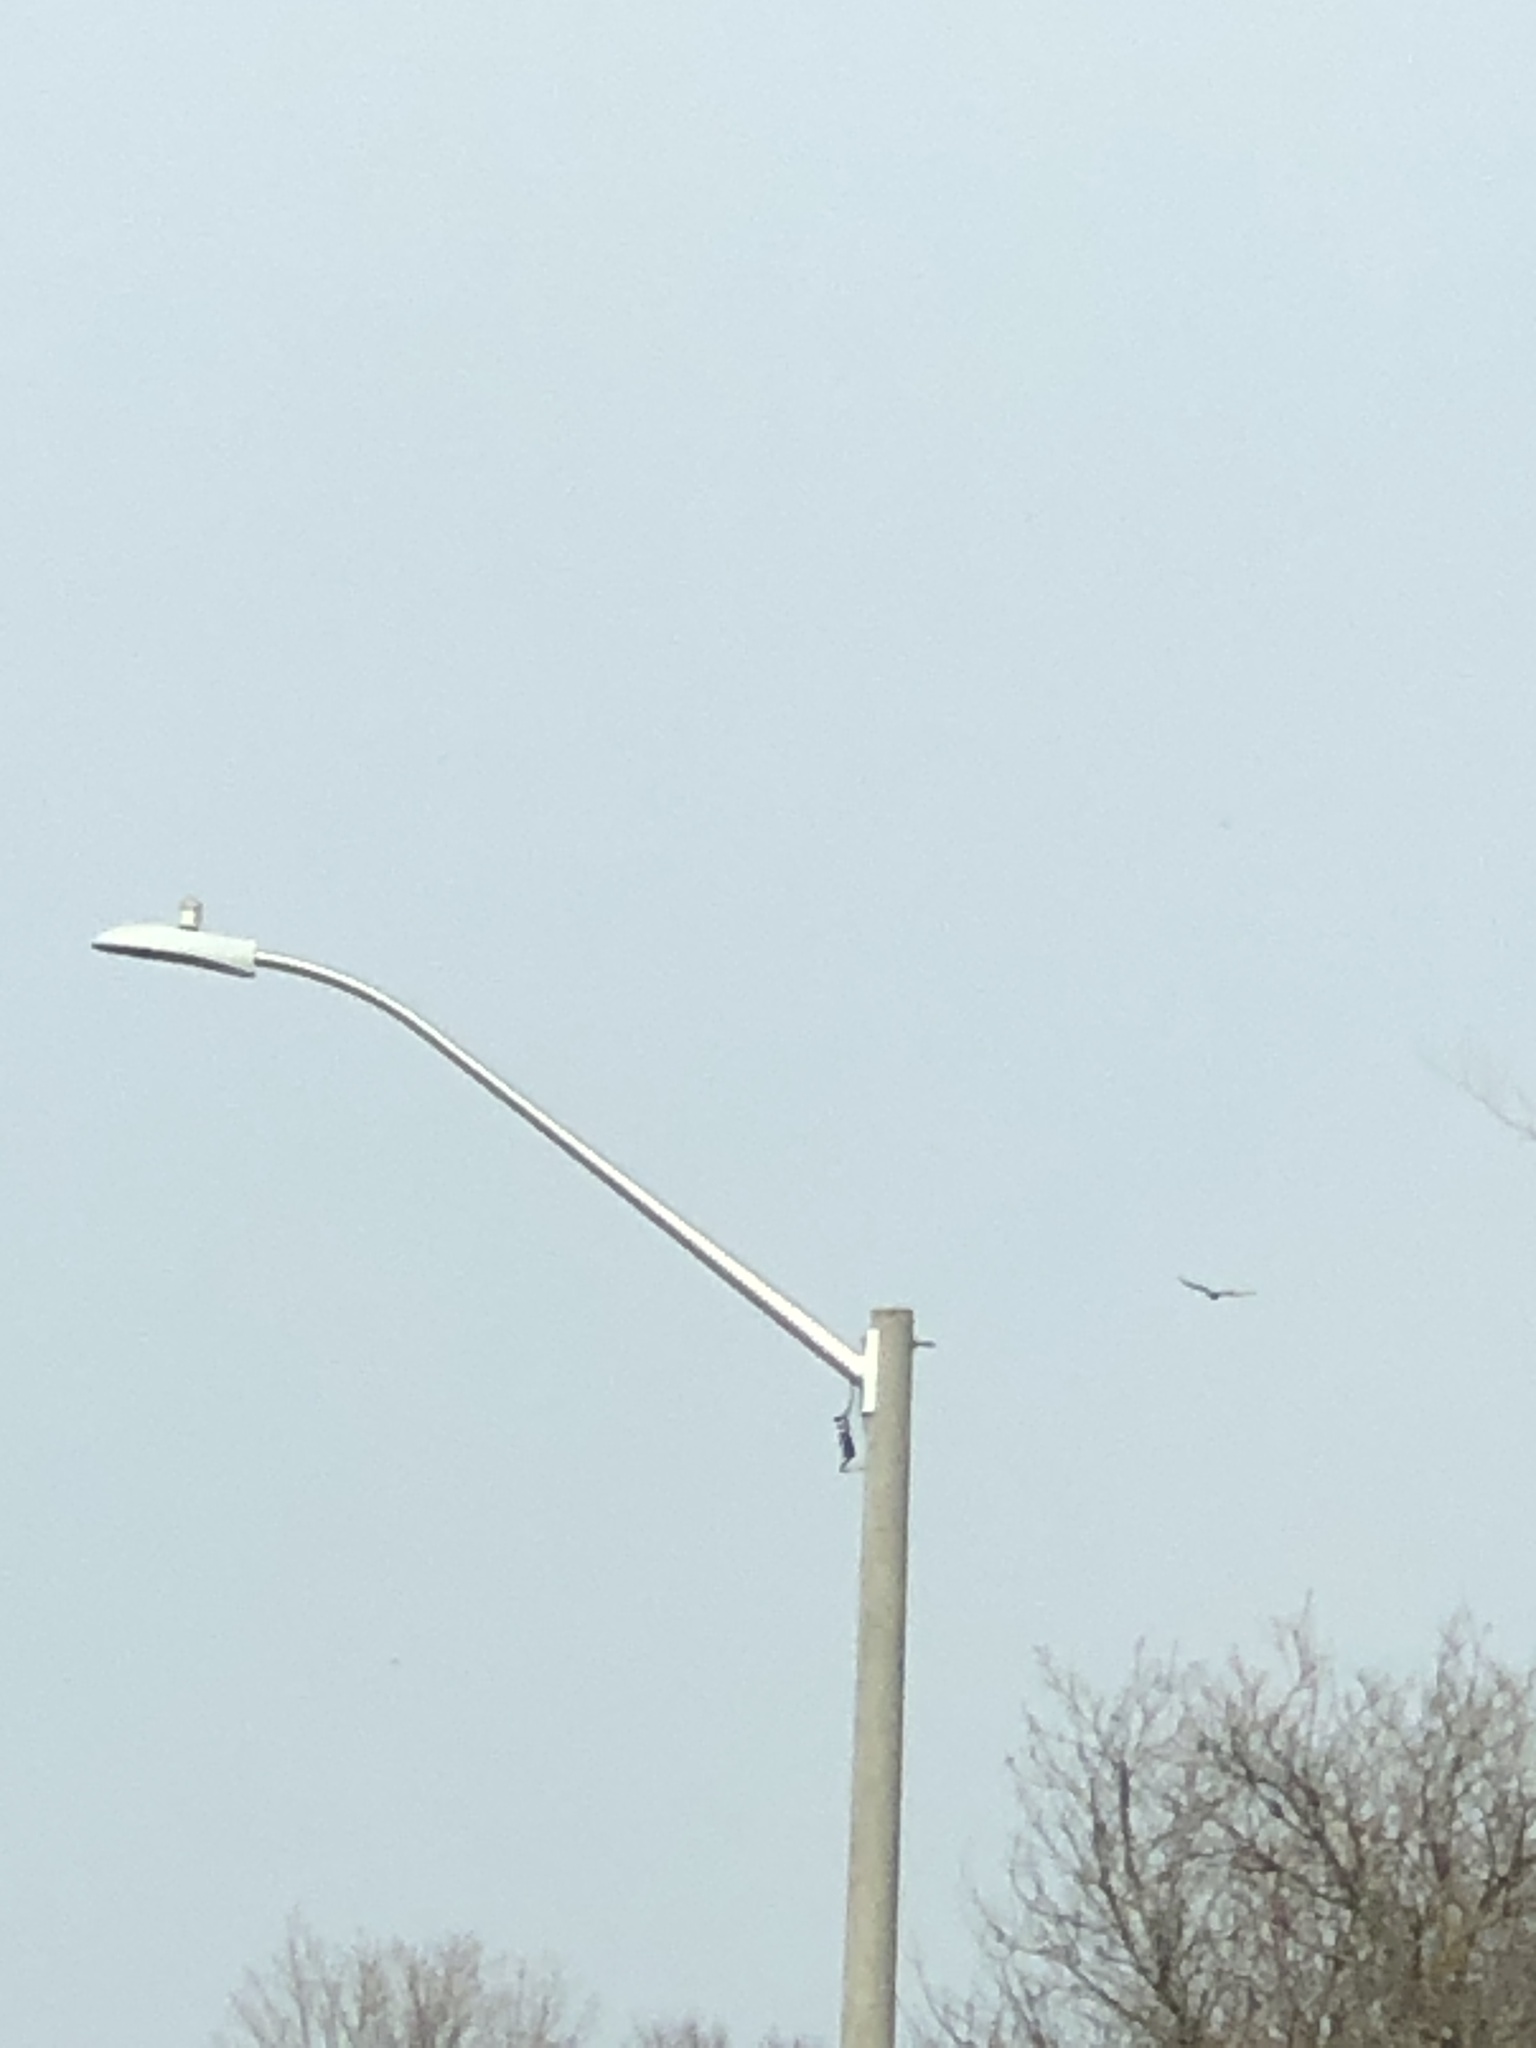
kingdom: Animalia
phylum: Chordata
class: Aves
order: Accipitriformes
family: Cathartidae
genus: Cathartes
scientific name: Cathartes aura
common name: Turkey vulture
